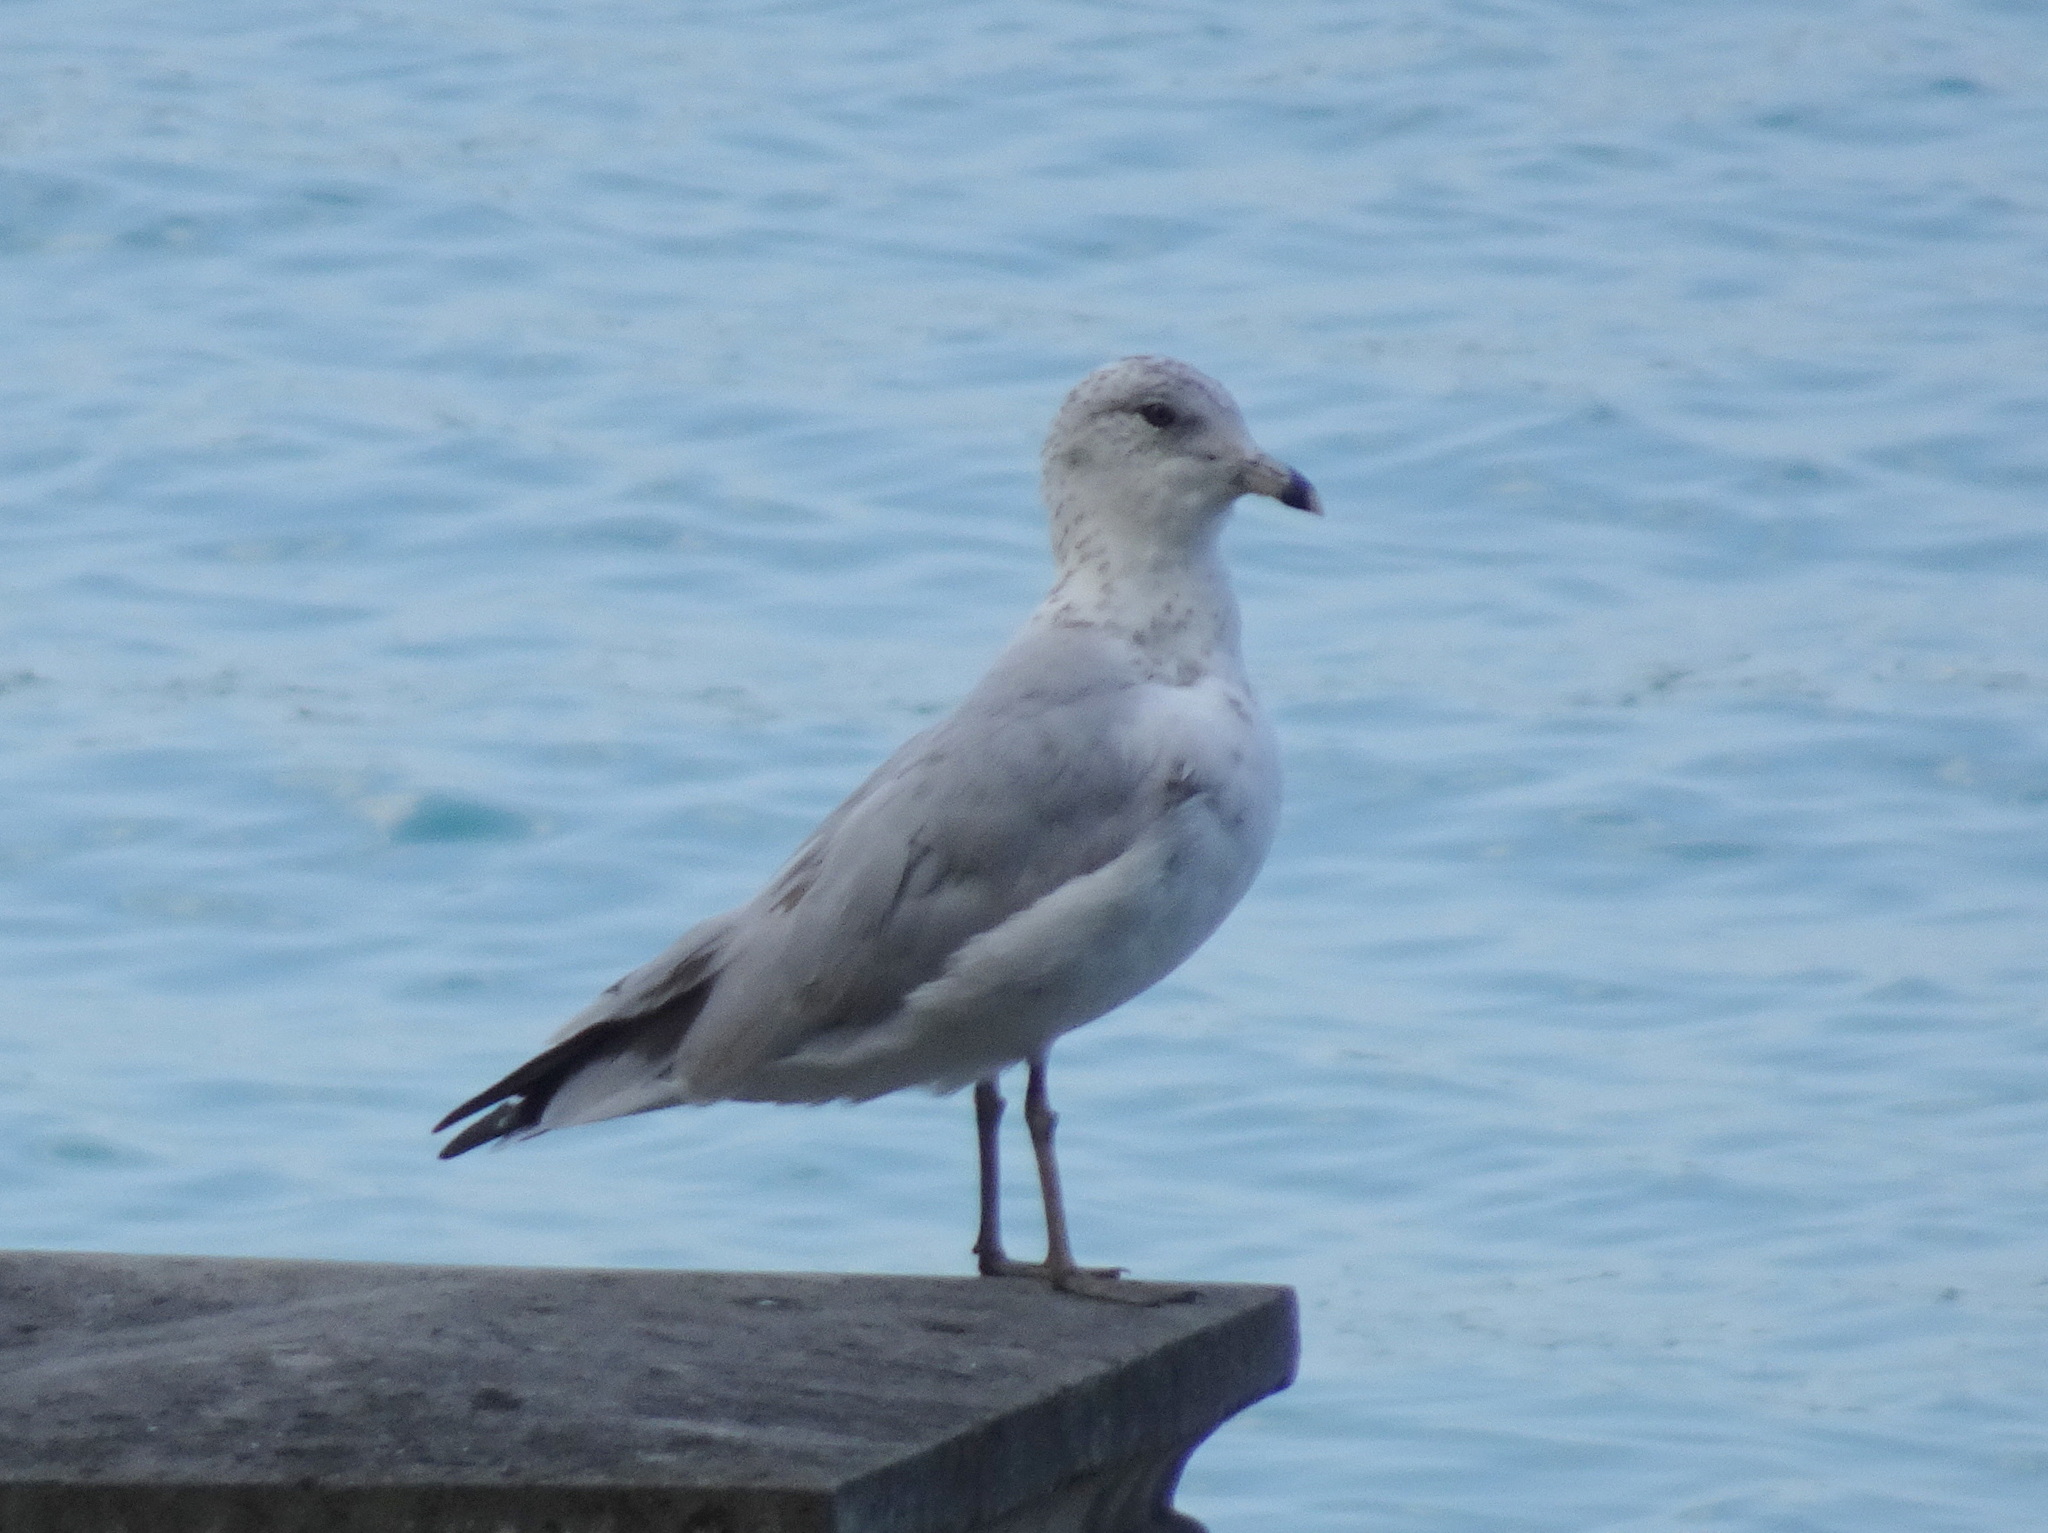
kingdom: Animalia
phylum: Chordata
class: Aves
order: Charadriiformes
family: Laridae
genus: Larus
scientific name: Larus delawarensis
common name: Ring-billed gull
